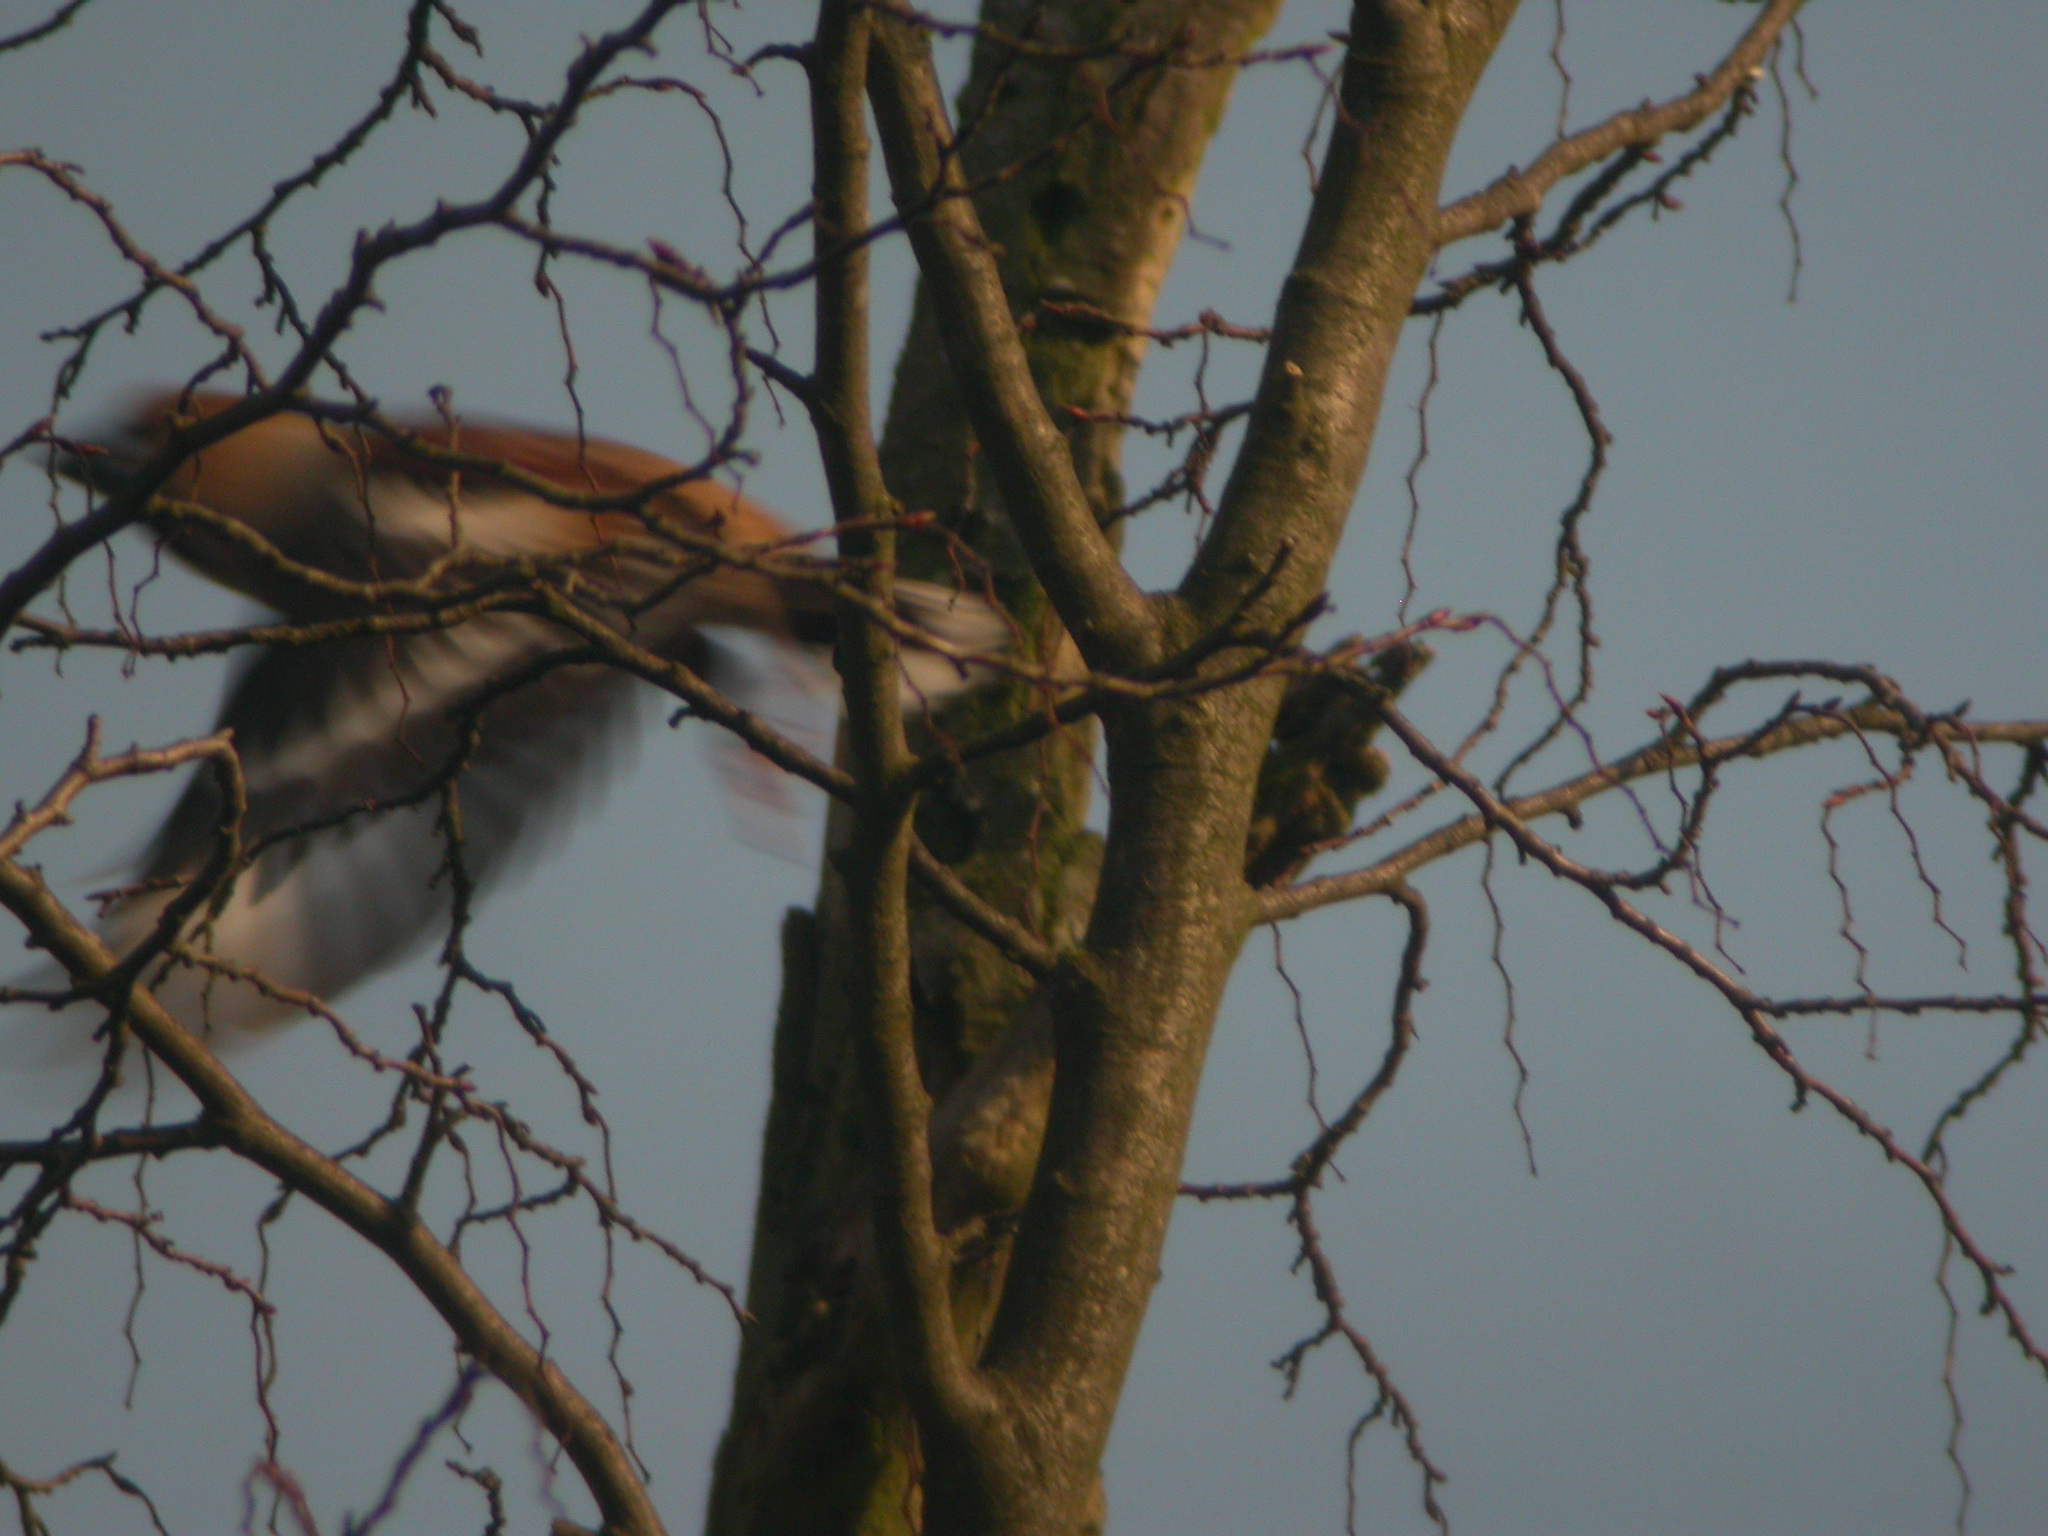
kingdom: Animalia
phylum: Chordata
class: Aves
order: Passeriformes
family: Fringillidae
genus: Coccothraustes
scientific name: Coccothraustes coccothraustes
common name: Hawfinch
